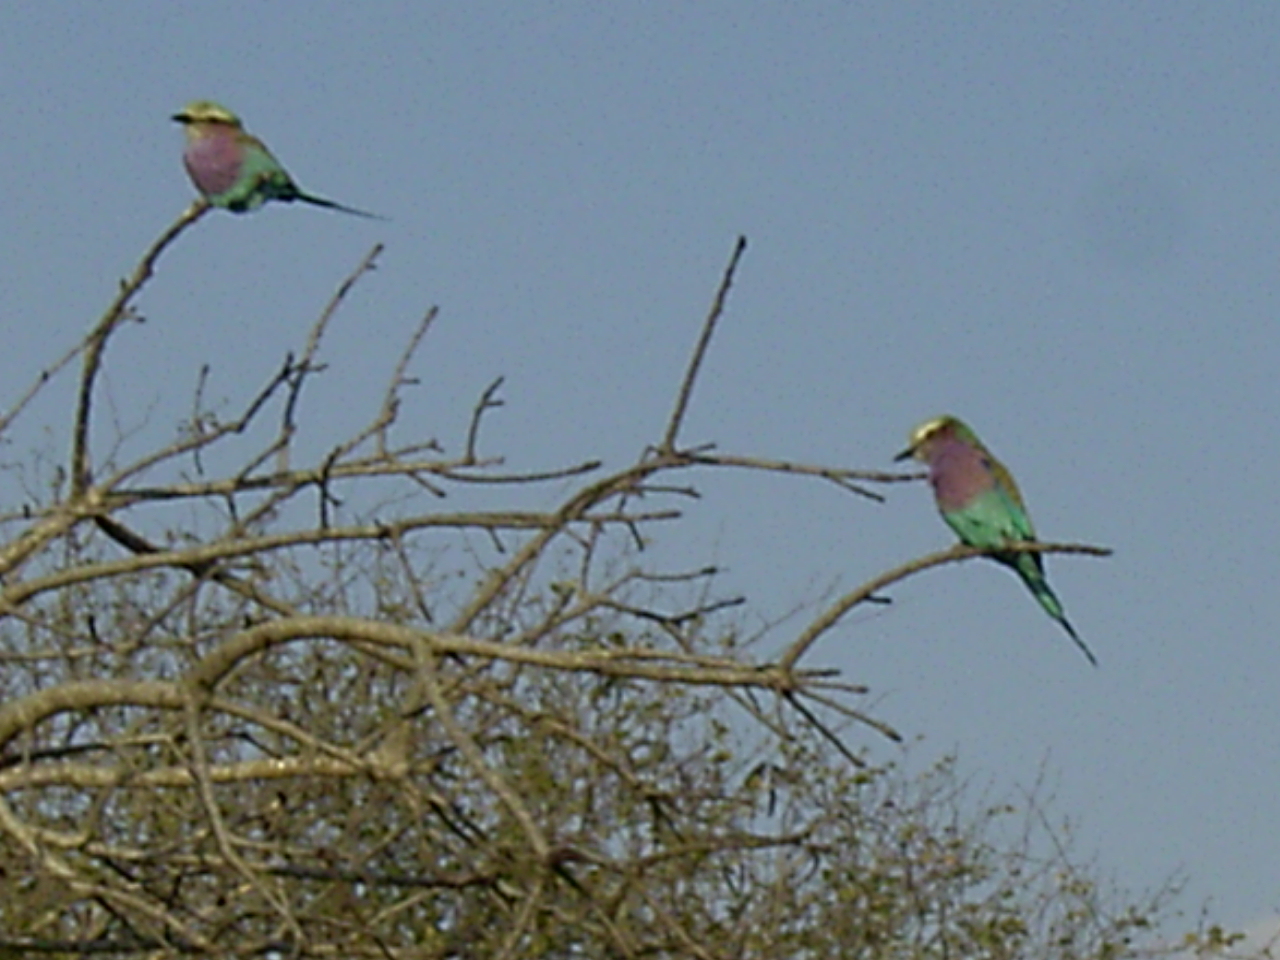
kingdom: Animalia
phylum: Chordata
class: Aves
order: Coraciiformes
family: Coraciidae
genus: Coracias
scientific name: Coracias caudatus
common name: Lilac-breasted roller
